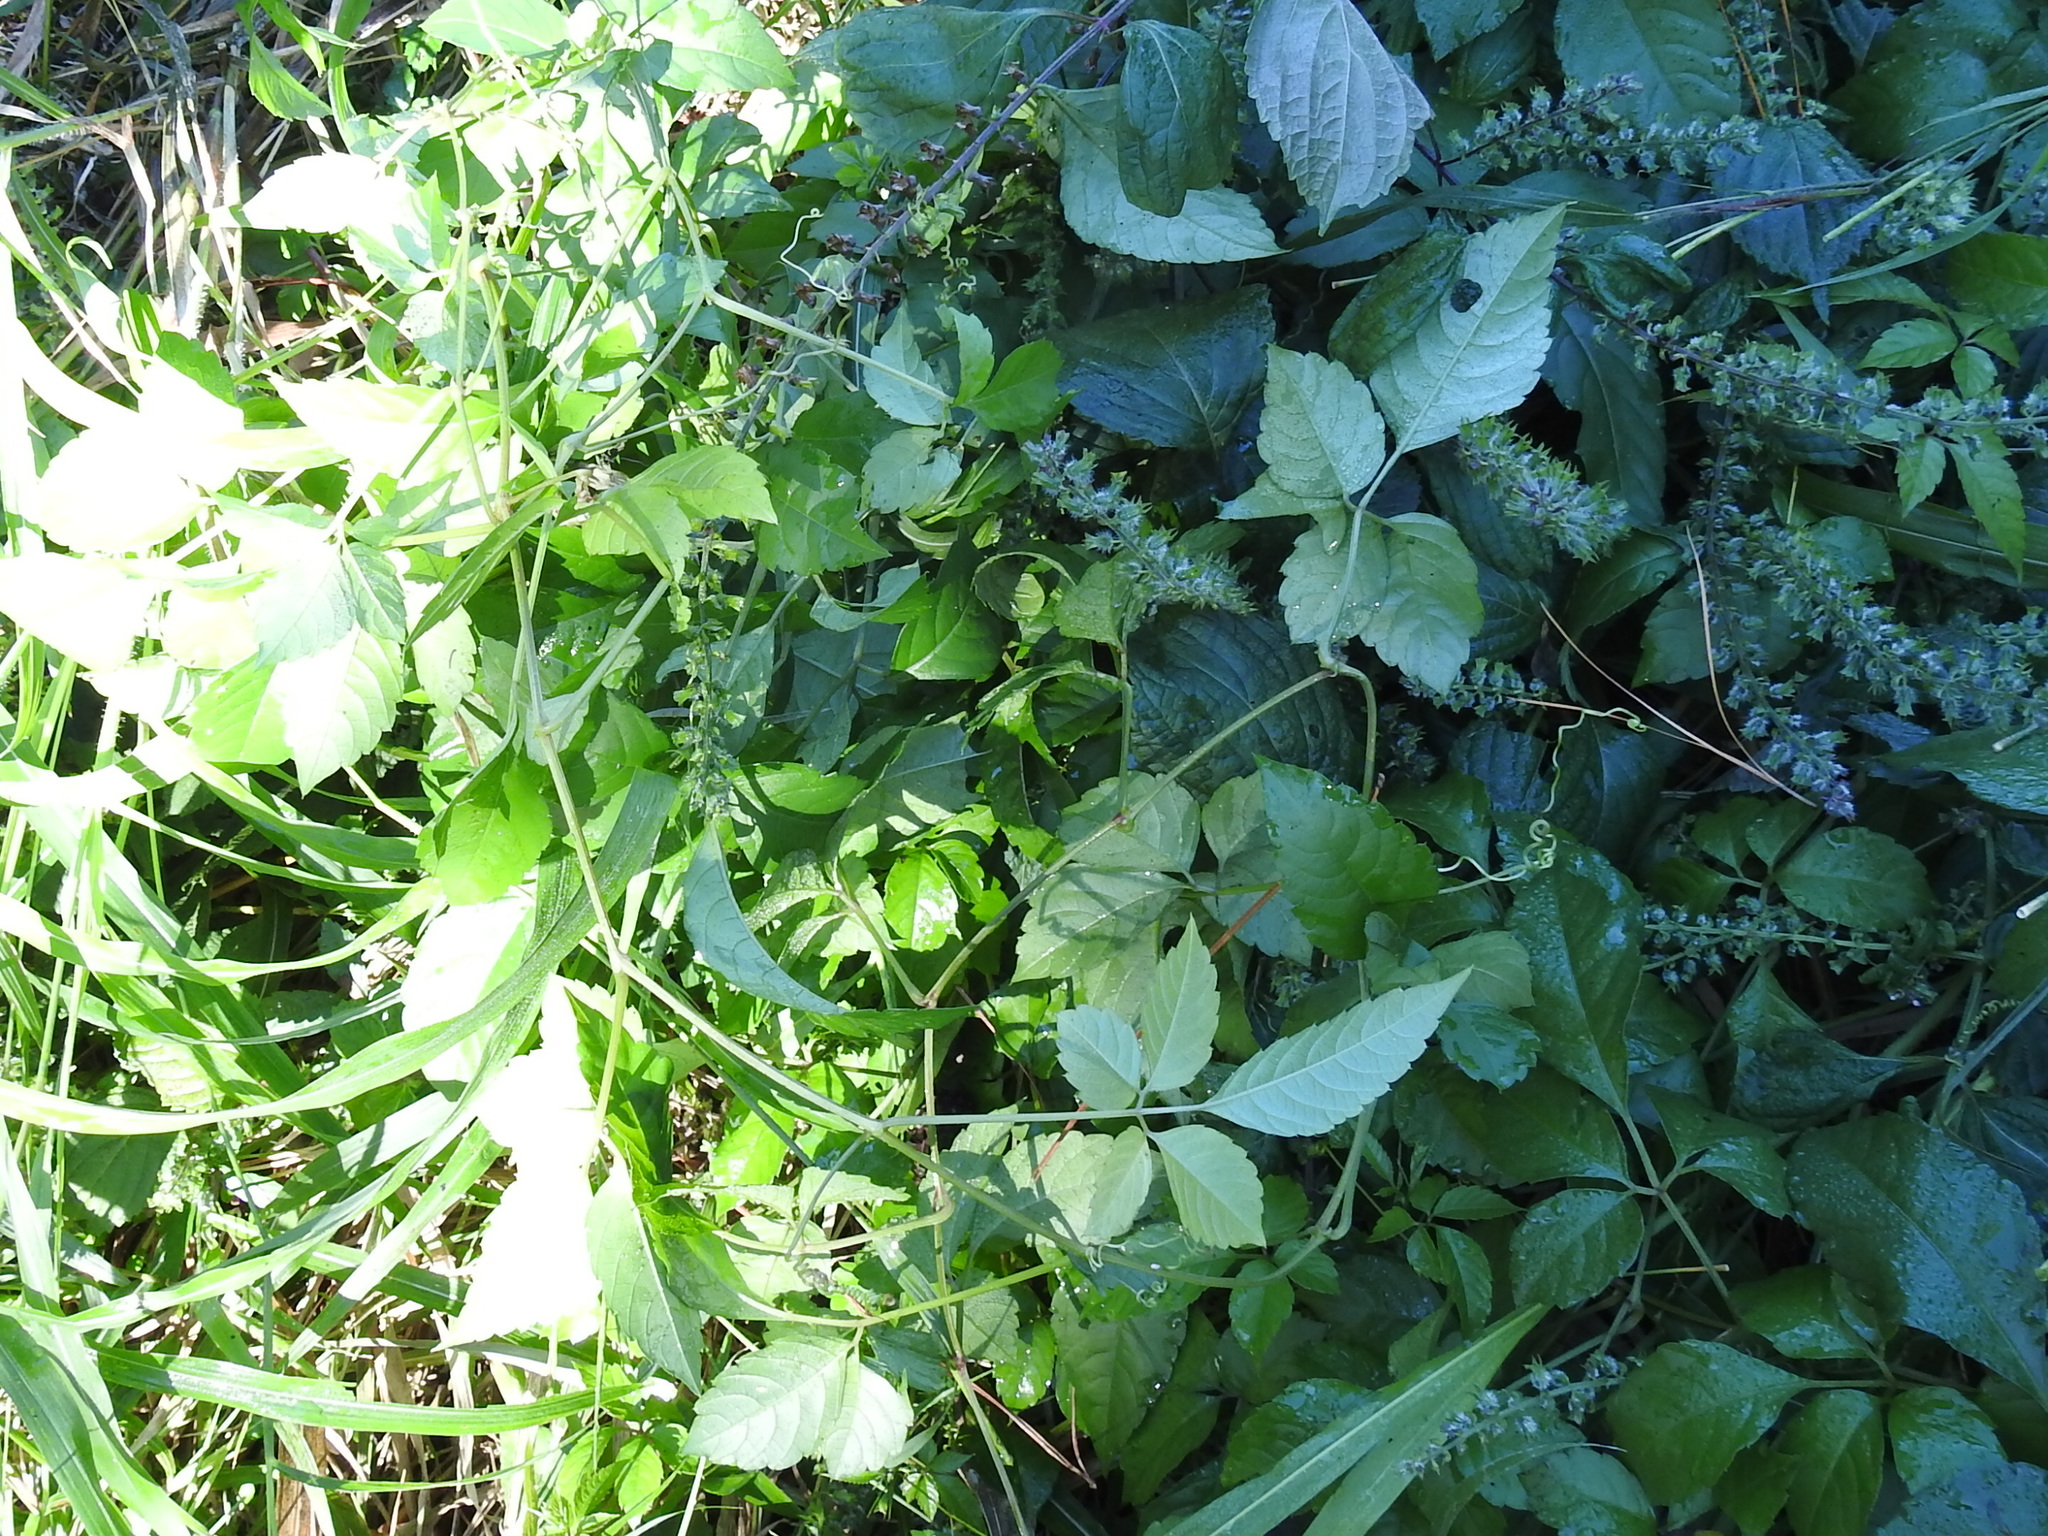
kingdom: Plantae
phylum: Tracheophyta
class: Magnoliopsida
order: Vitales
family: Vitaceae
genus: Causonis
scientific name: Causonis japonica
